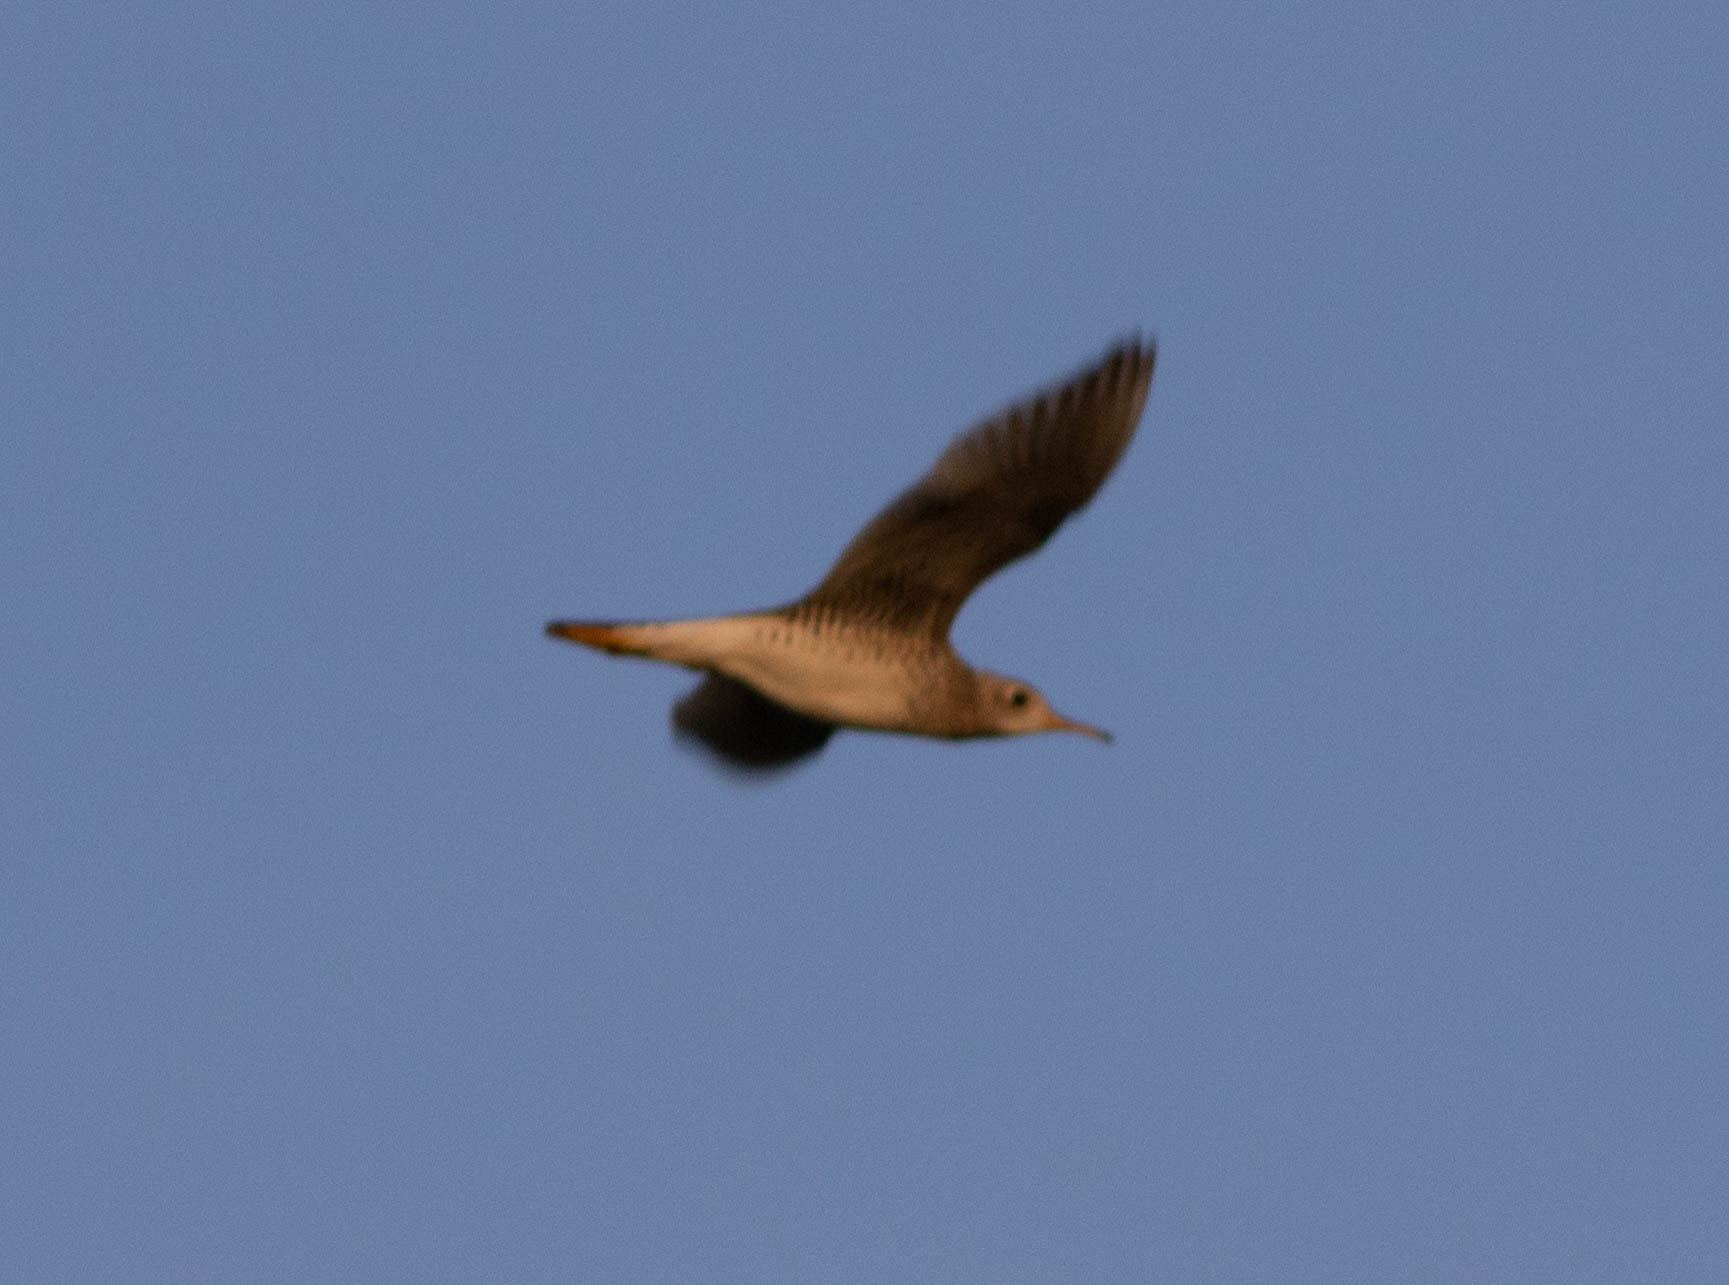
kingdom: Animalia
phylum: Chordata
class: Aves
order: Charadriiformes
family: Scolopacidae
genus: Bartramia
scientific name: Bartramia longicauda
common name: Upland sandpiper
